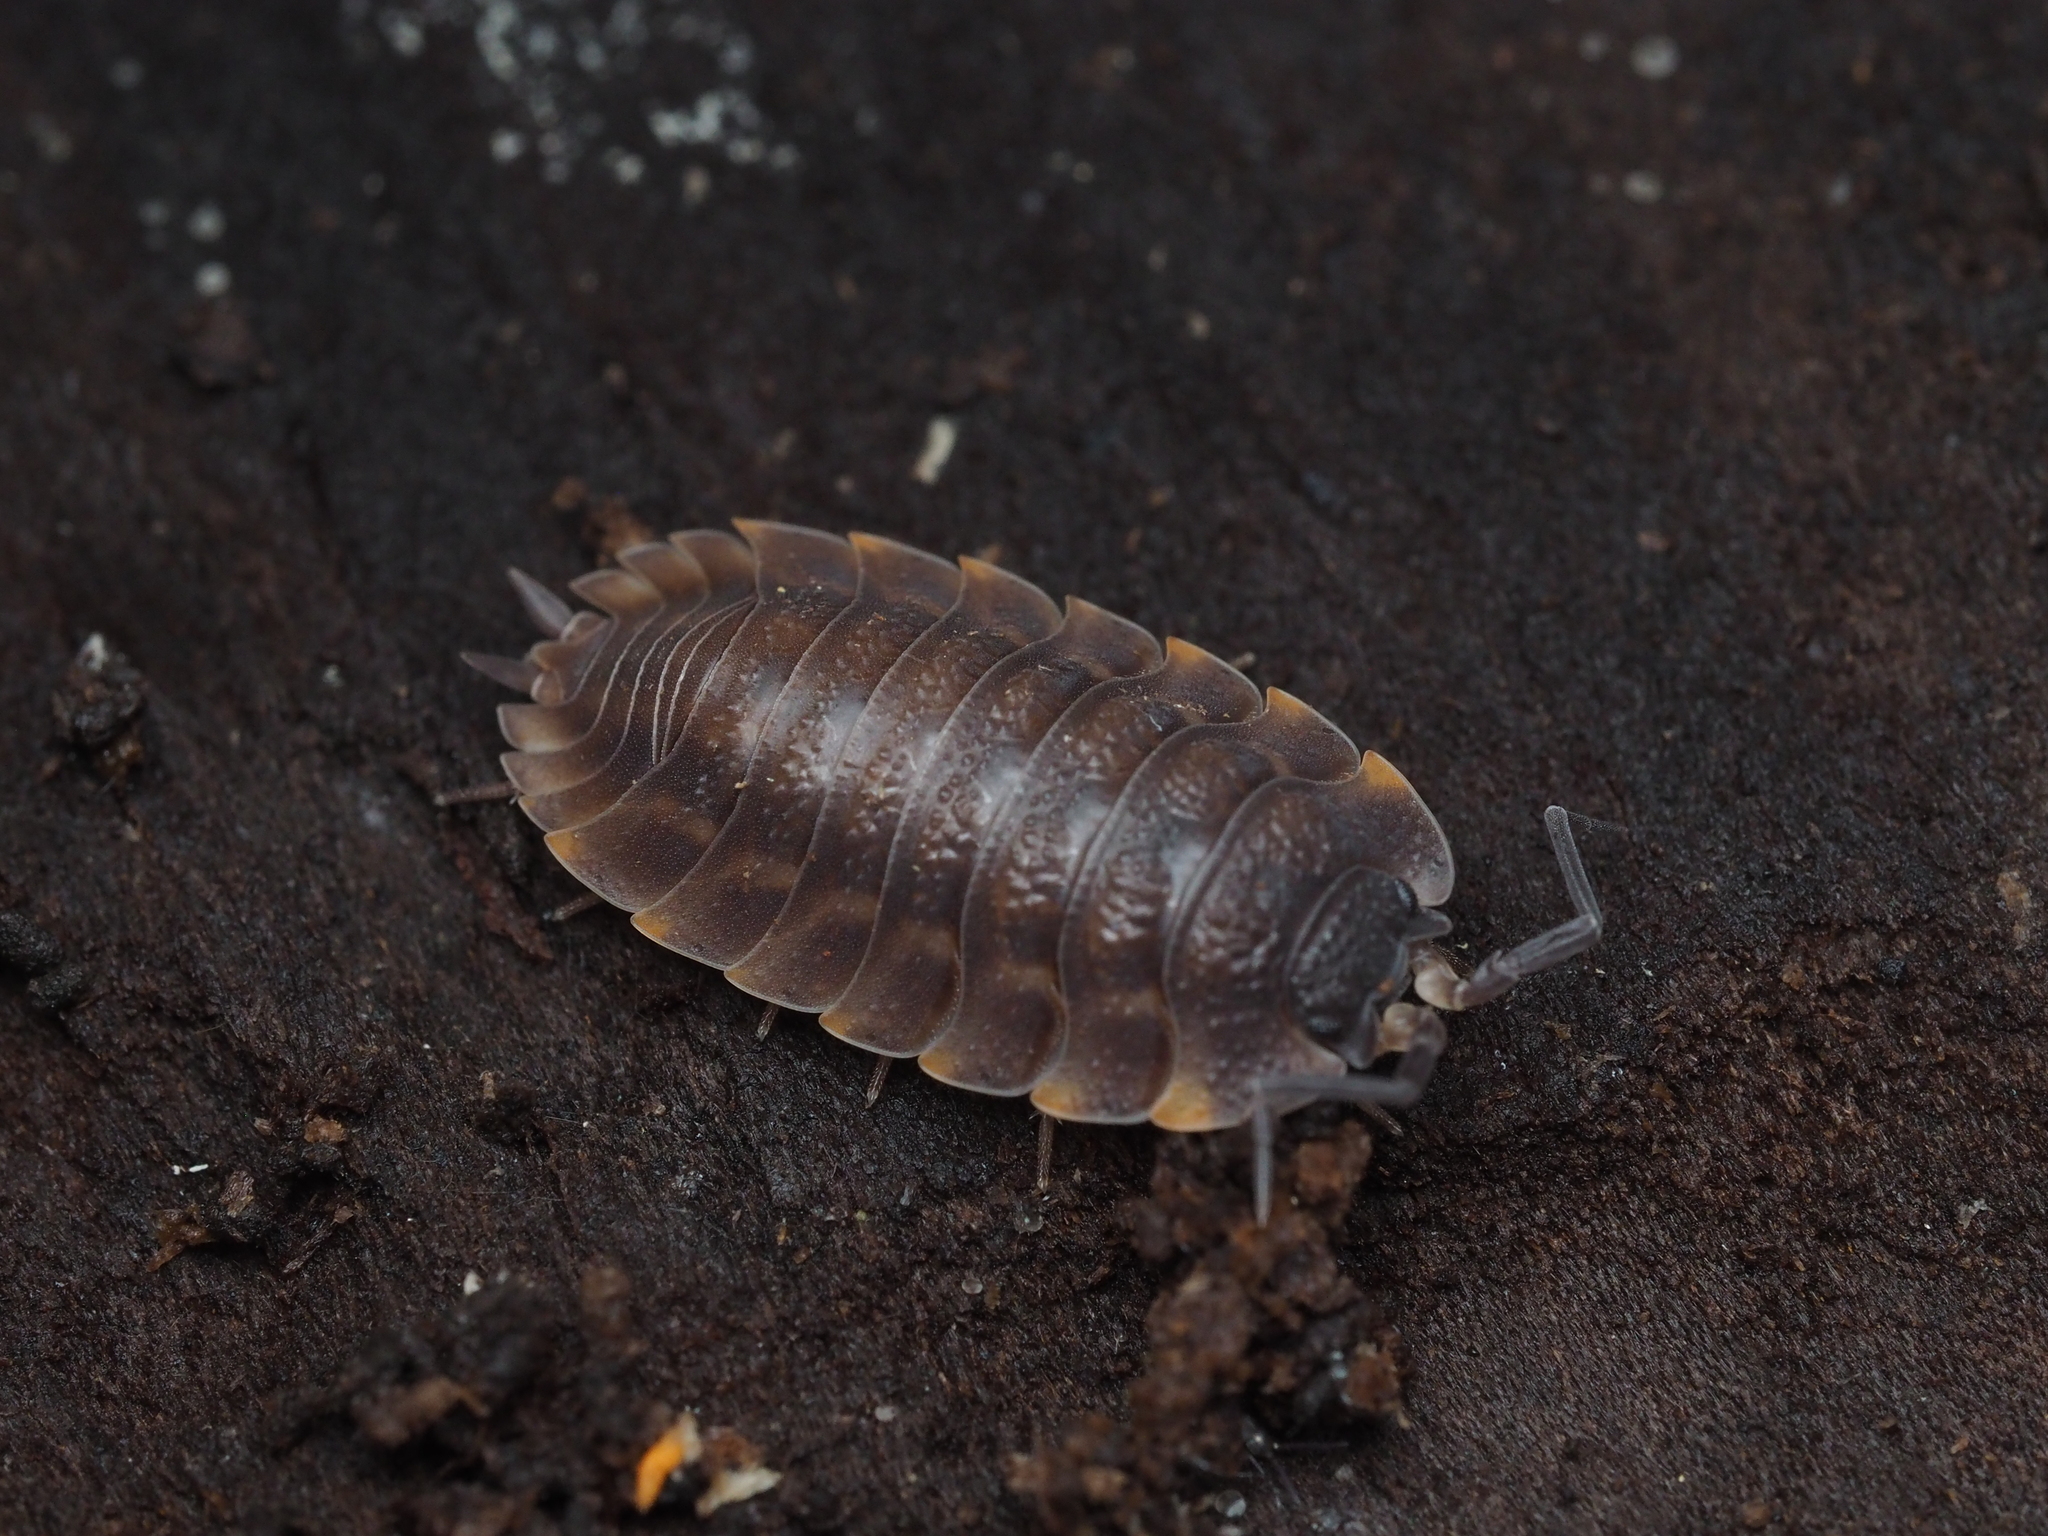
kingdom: Animalia
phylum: Arthropoda
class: Malacostraca
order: Isopoda
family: Trachelipodidae
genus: Trachelipus
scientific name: Trachelipus ratzeburgii
